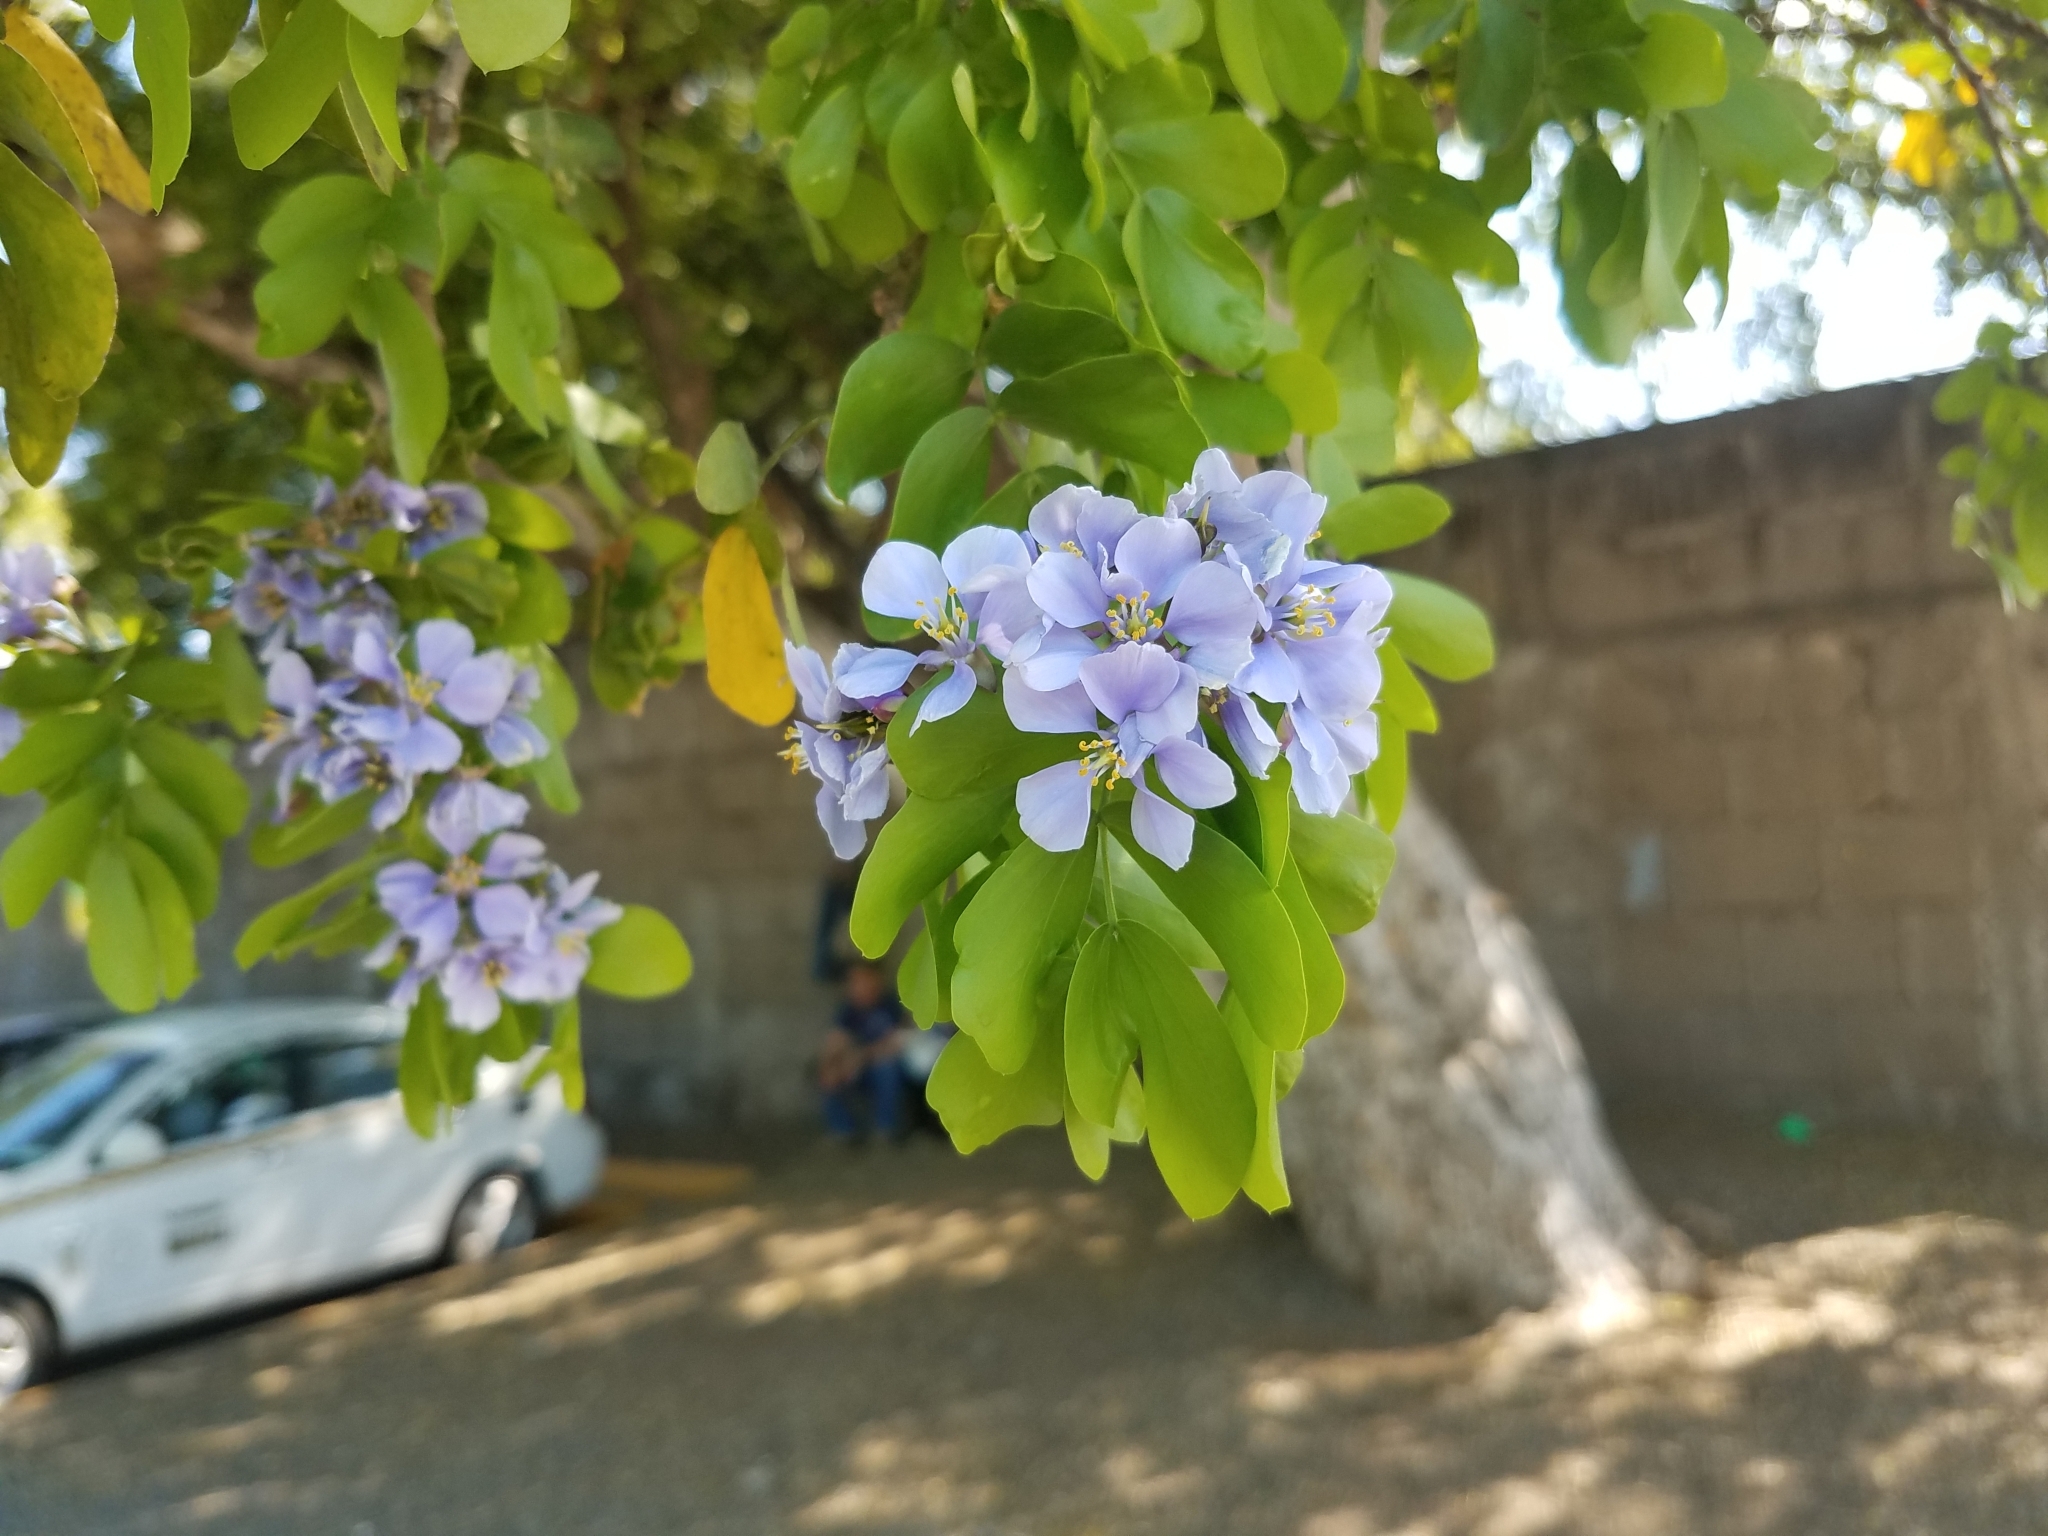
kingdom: Plantae
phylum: Tracheophyta
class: Magnoliopsida
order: Zygophyllales
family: Zygophyllaceae
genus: Guaiacum
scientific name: Guaiacum sanctum
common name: Holywood
